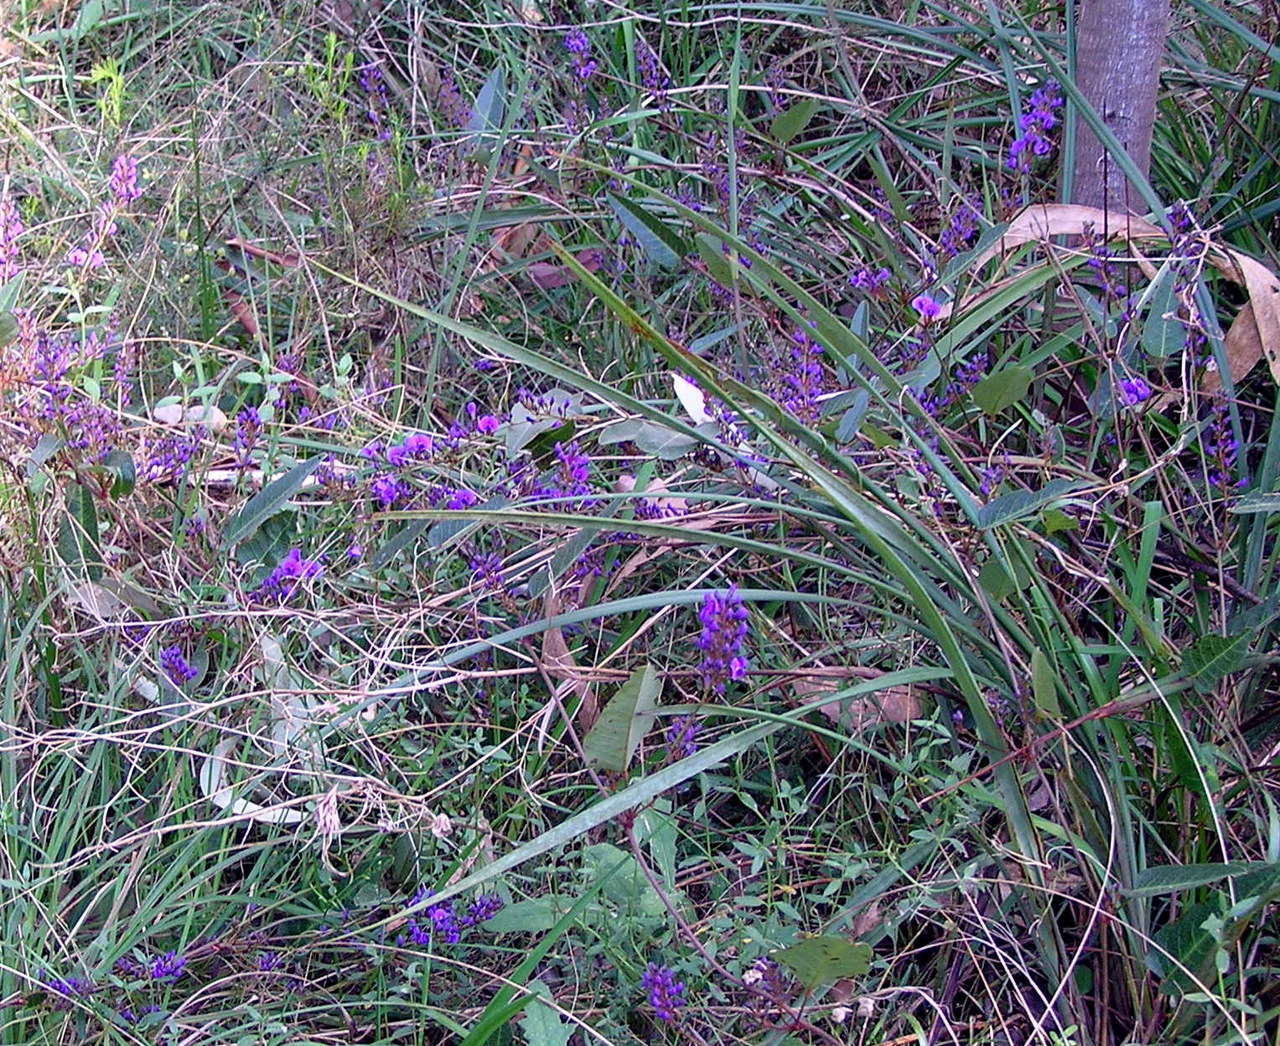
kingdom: Plantae
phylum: Tracheophyta
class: Magnoliopsida
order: Fabales
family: Fabaceae
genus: Hardenbergia
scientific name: Hardenbergia violacea
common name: Coral-pea
